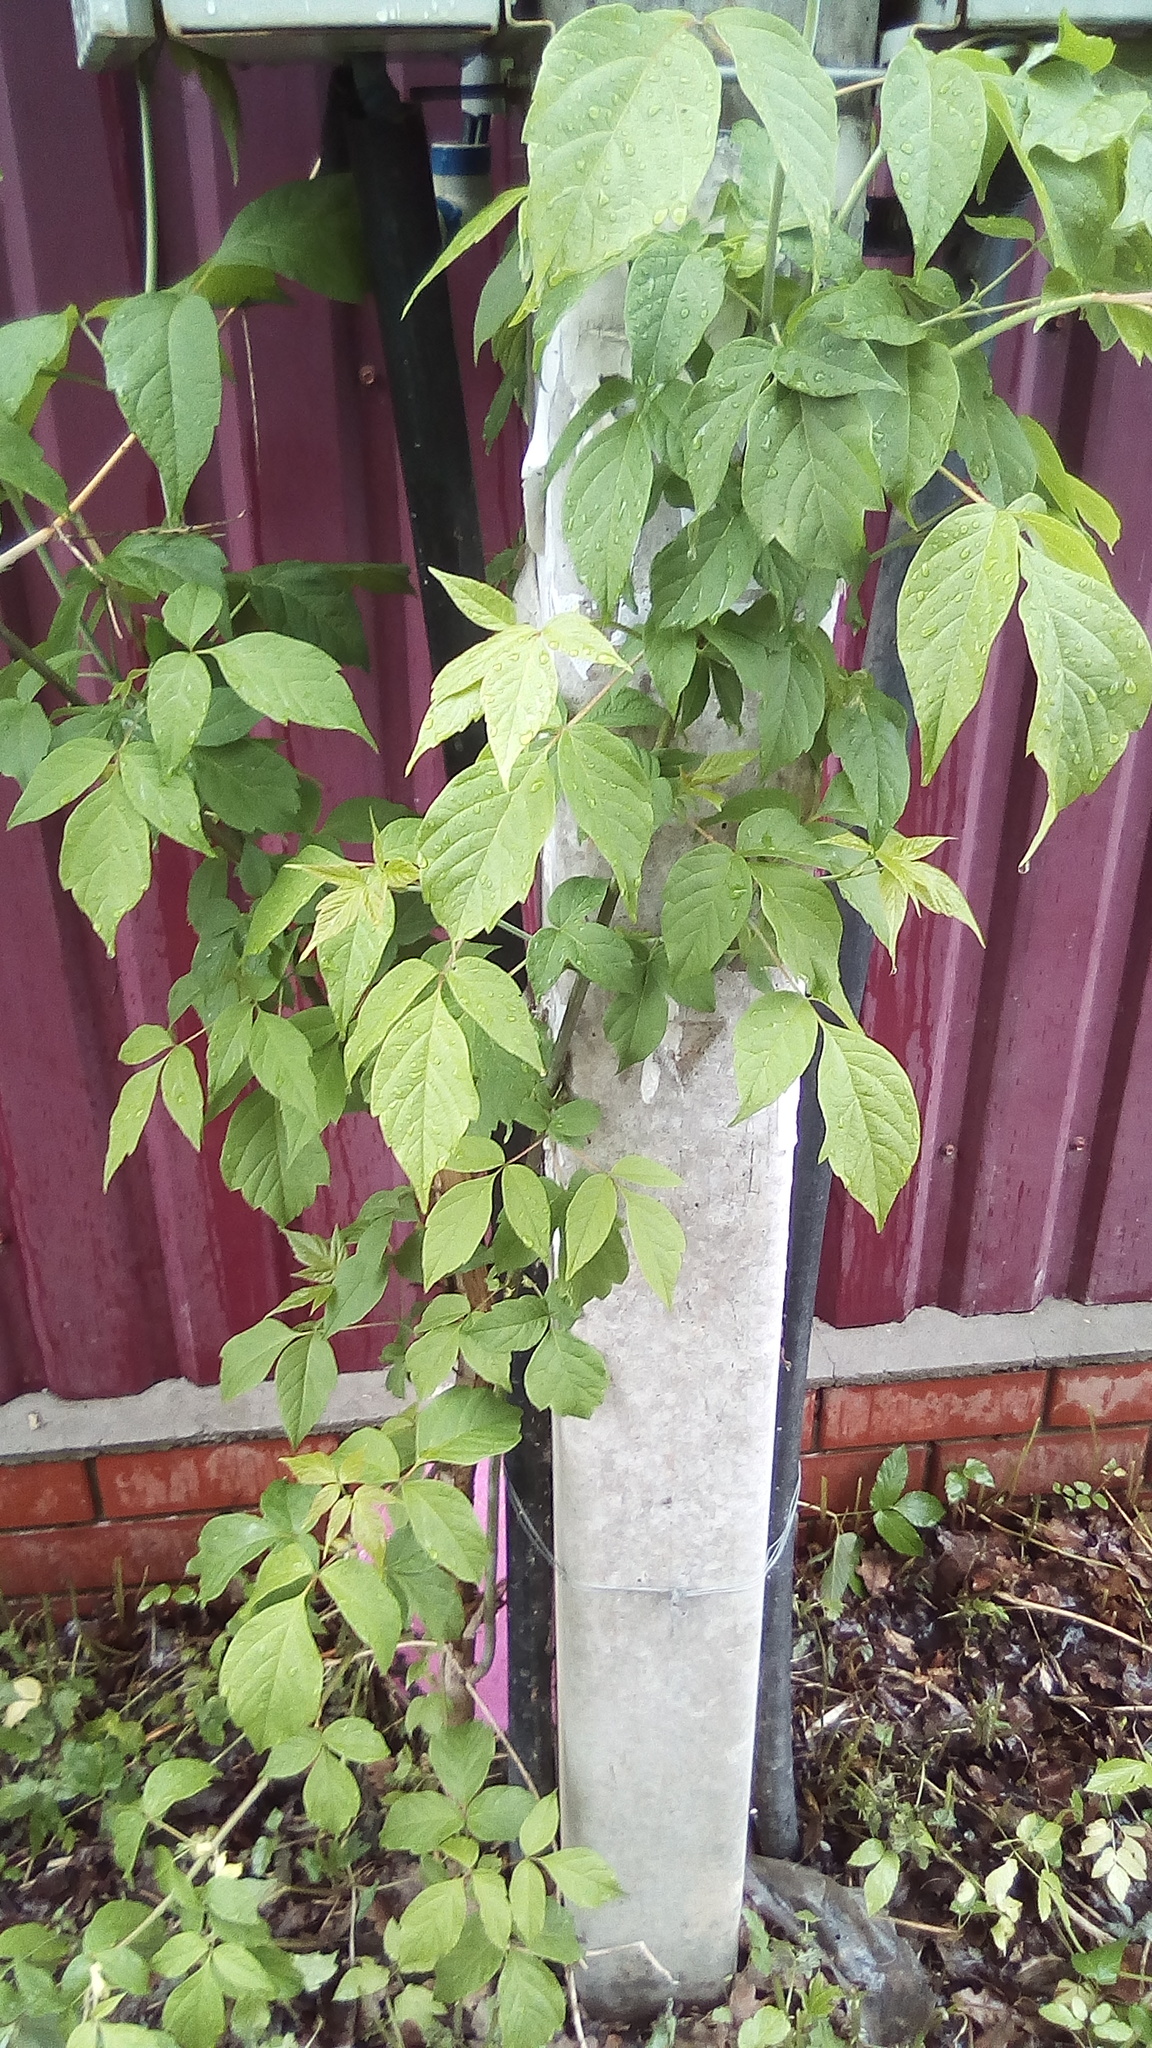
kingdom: Plantae
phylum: Tracheophyta
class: Magnoliopsida
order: Sapindales
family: Sapindaceae
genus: Acer
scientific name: Acer negundo
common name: Ashleaf maple
